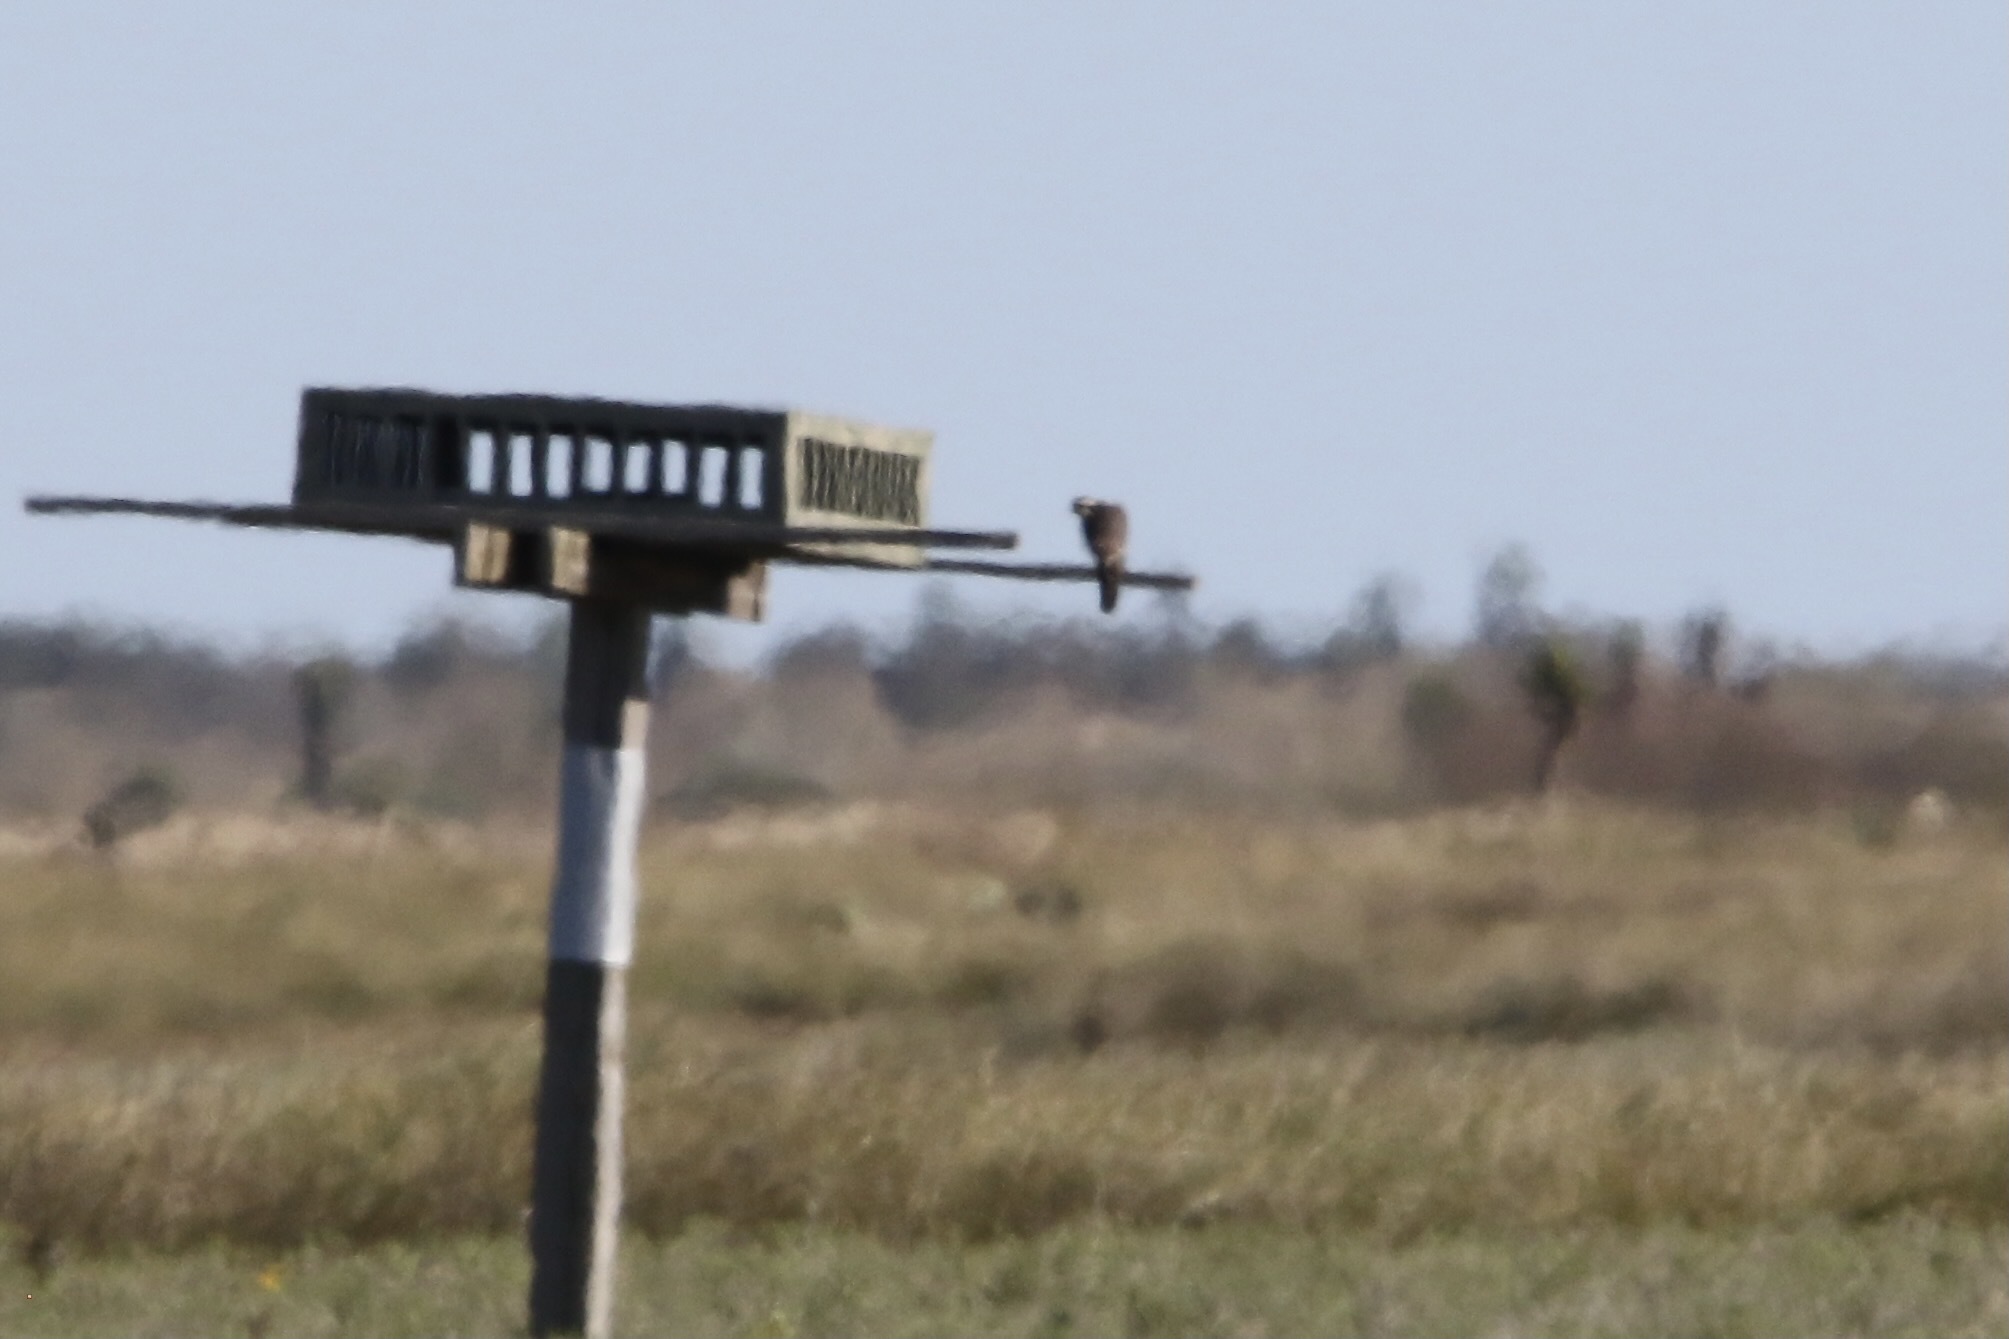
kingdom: Animalia
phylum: Chordata
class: Aves
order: Falconiformes
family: Falconidae
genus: Falco
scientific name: Falco femoralis
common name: Aplomado falcon
